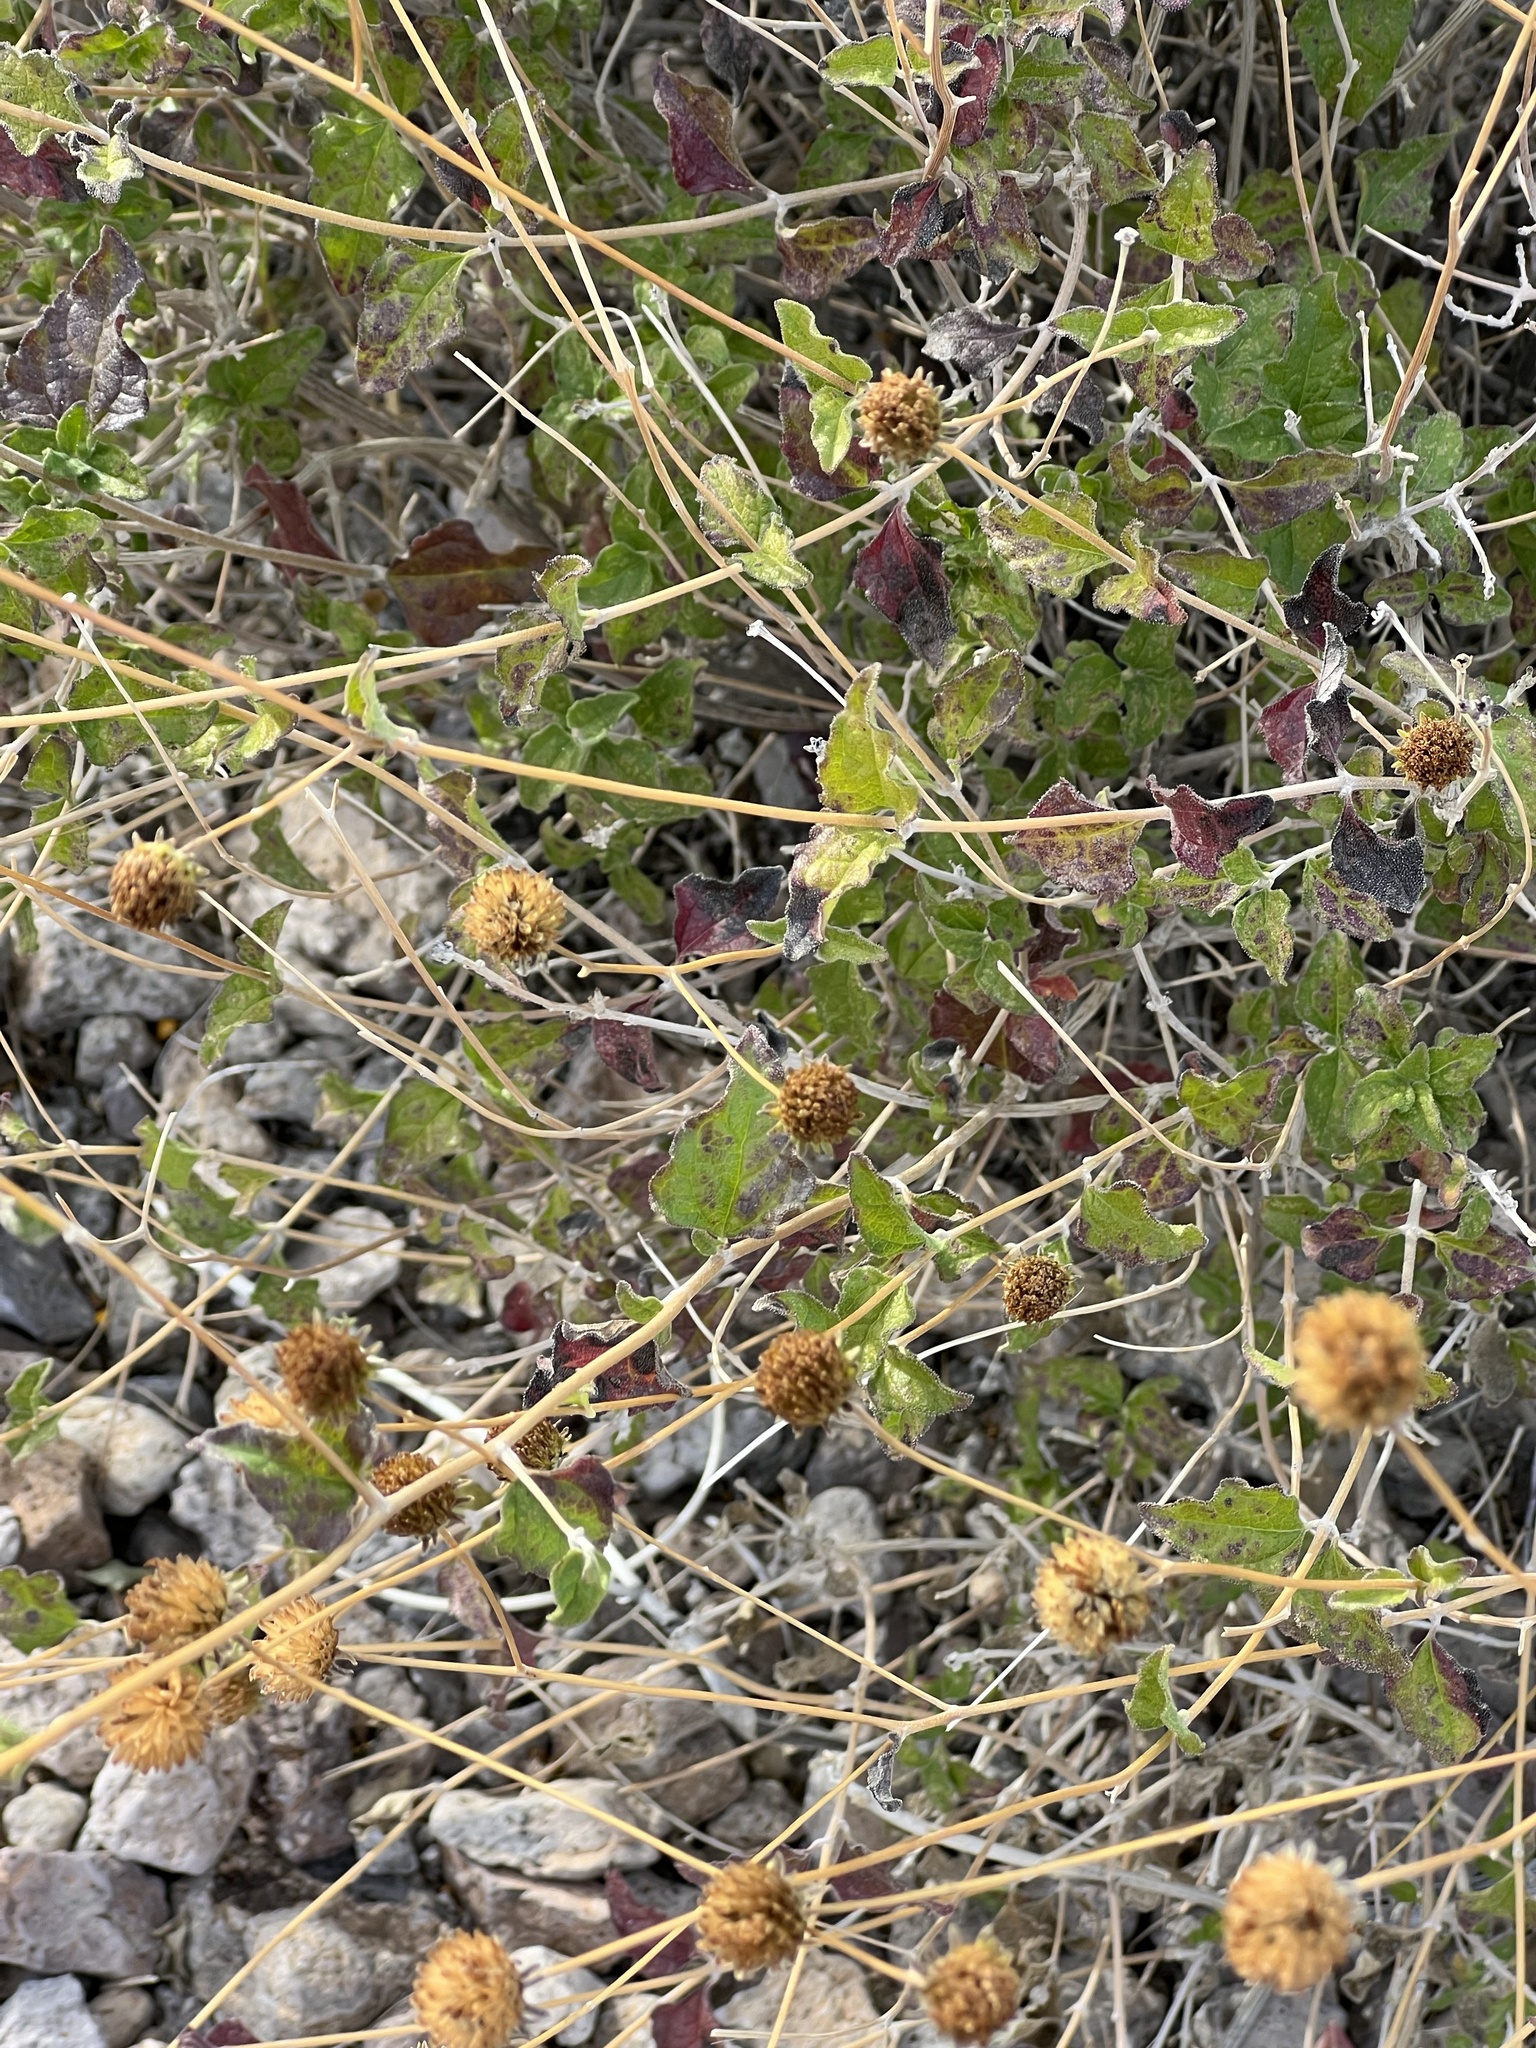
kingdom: Plantae
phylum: Tracheophyta
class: Magnoliopsida
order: Asterales
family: Asteraceae
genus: Bahiopsis
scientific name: Bahiopsis parishii
